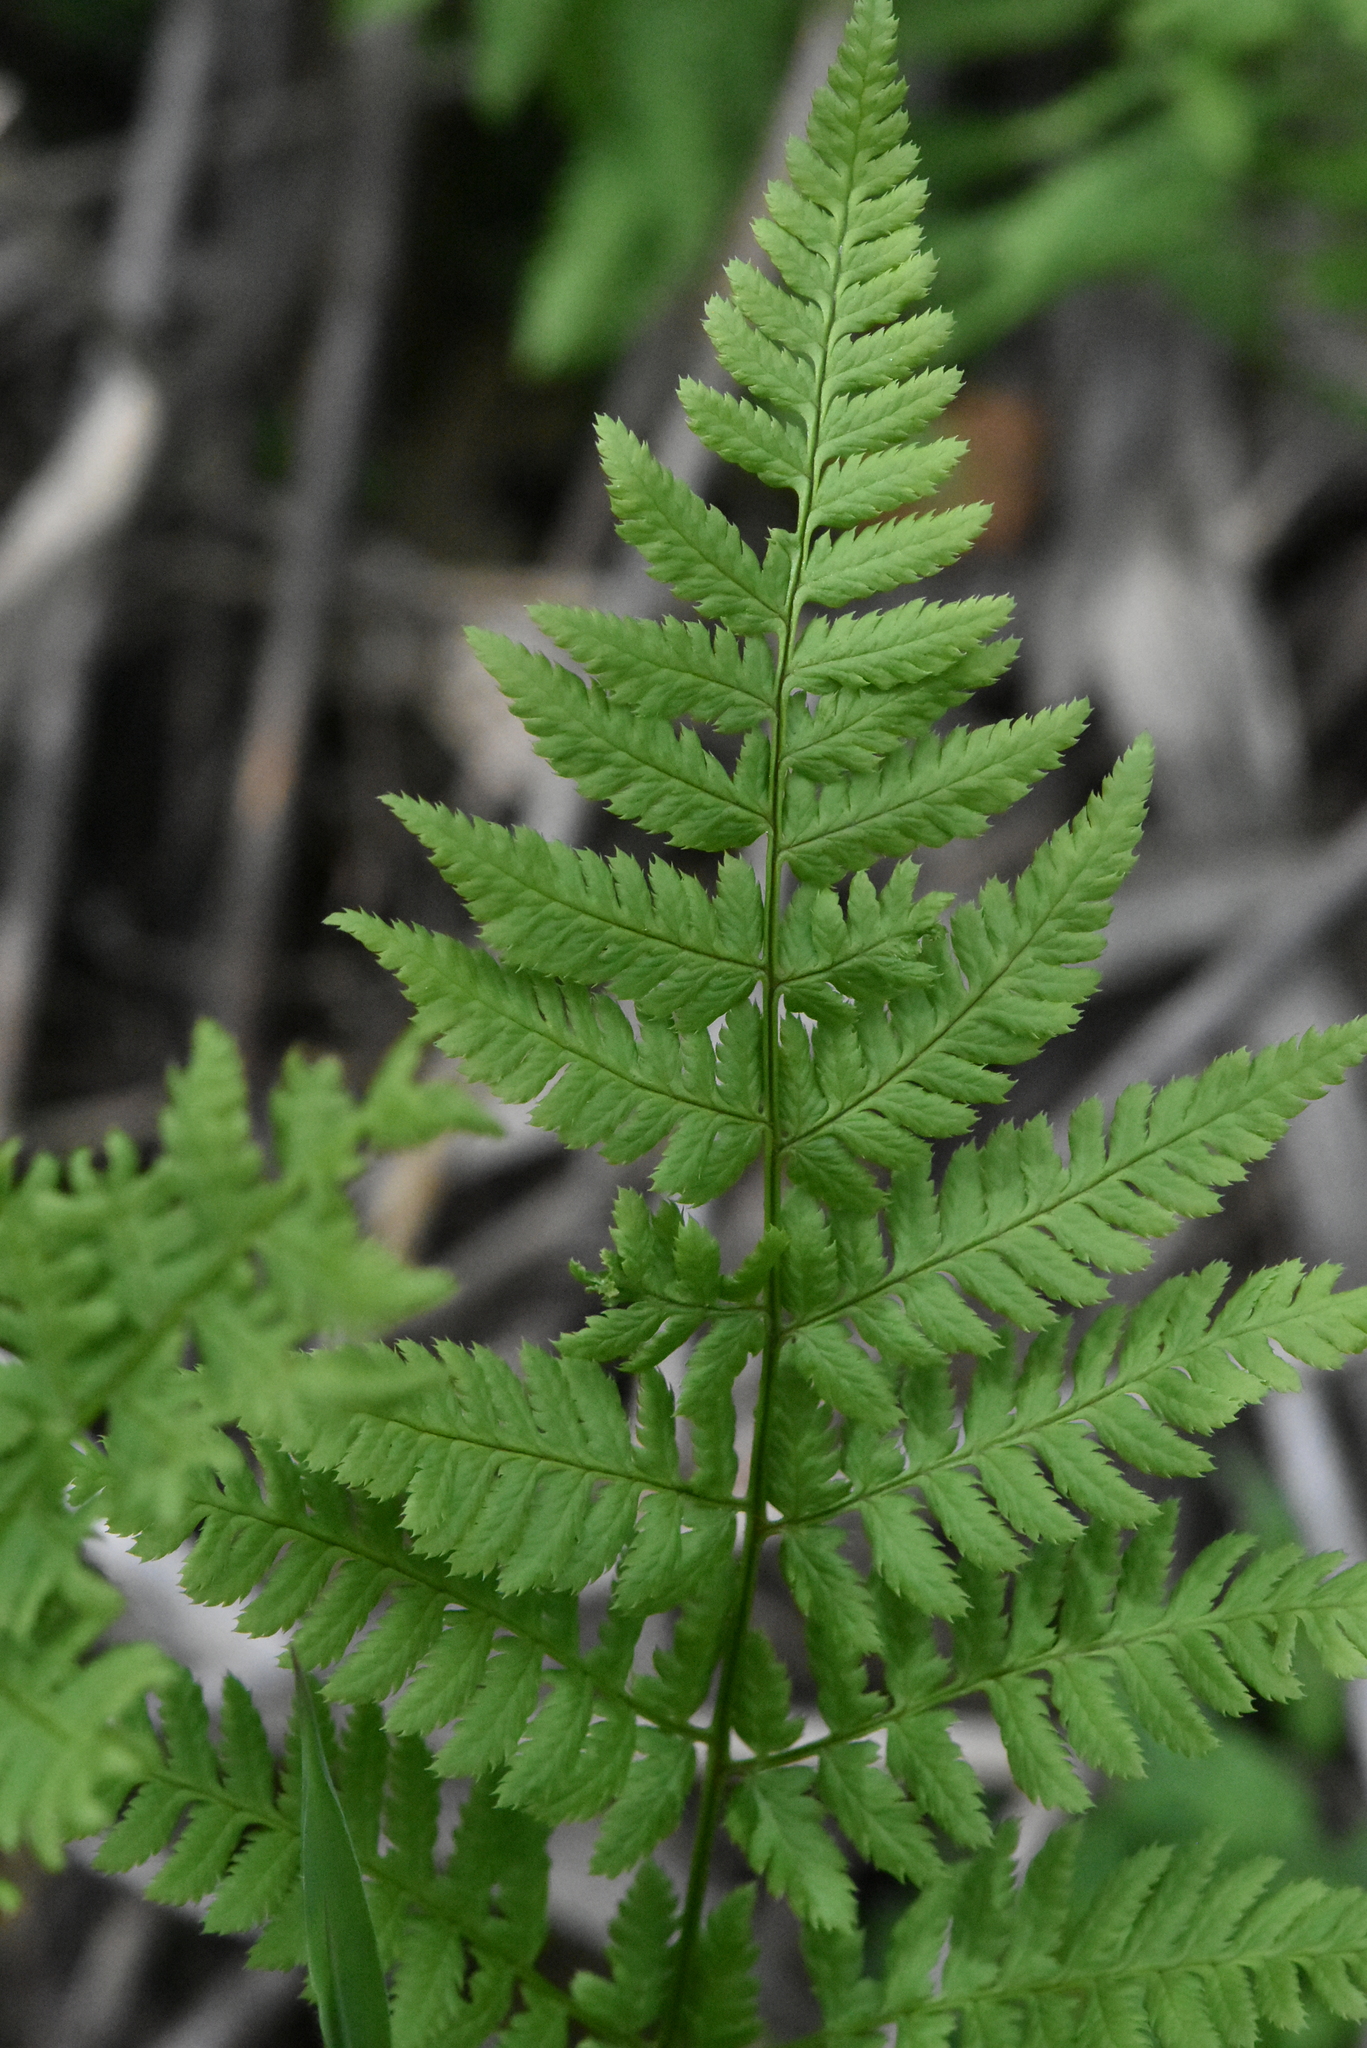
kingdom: Plantae
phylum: Tracheophyta
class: Polypodiopsida
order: Polypodiales
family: Dryopteridaceae
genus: Dryopteris
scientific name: Dryopteris carthusiana
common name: Narrow buckler-fern
